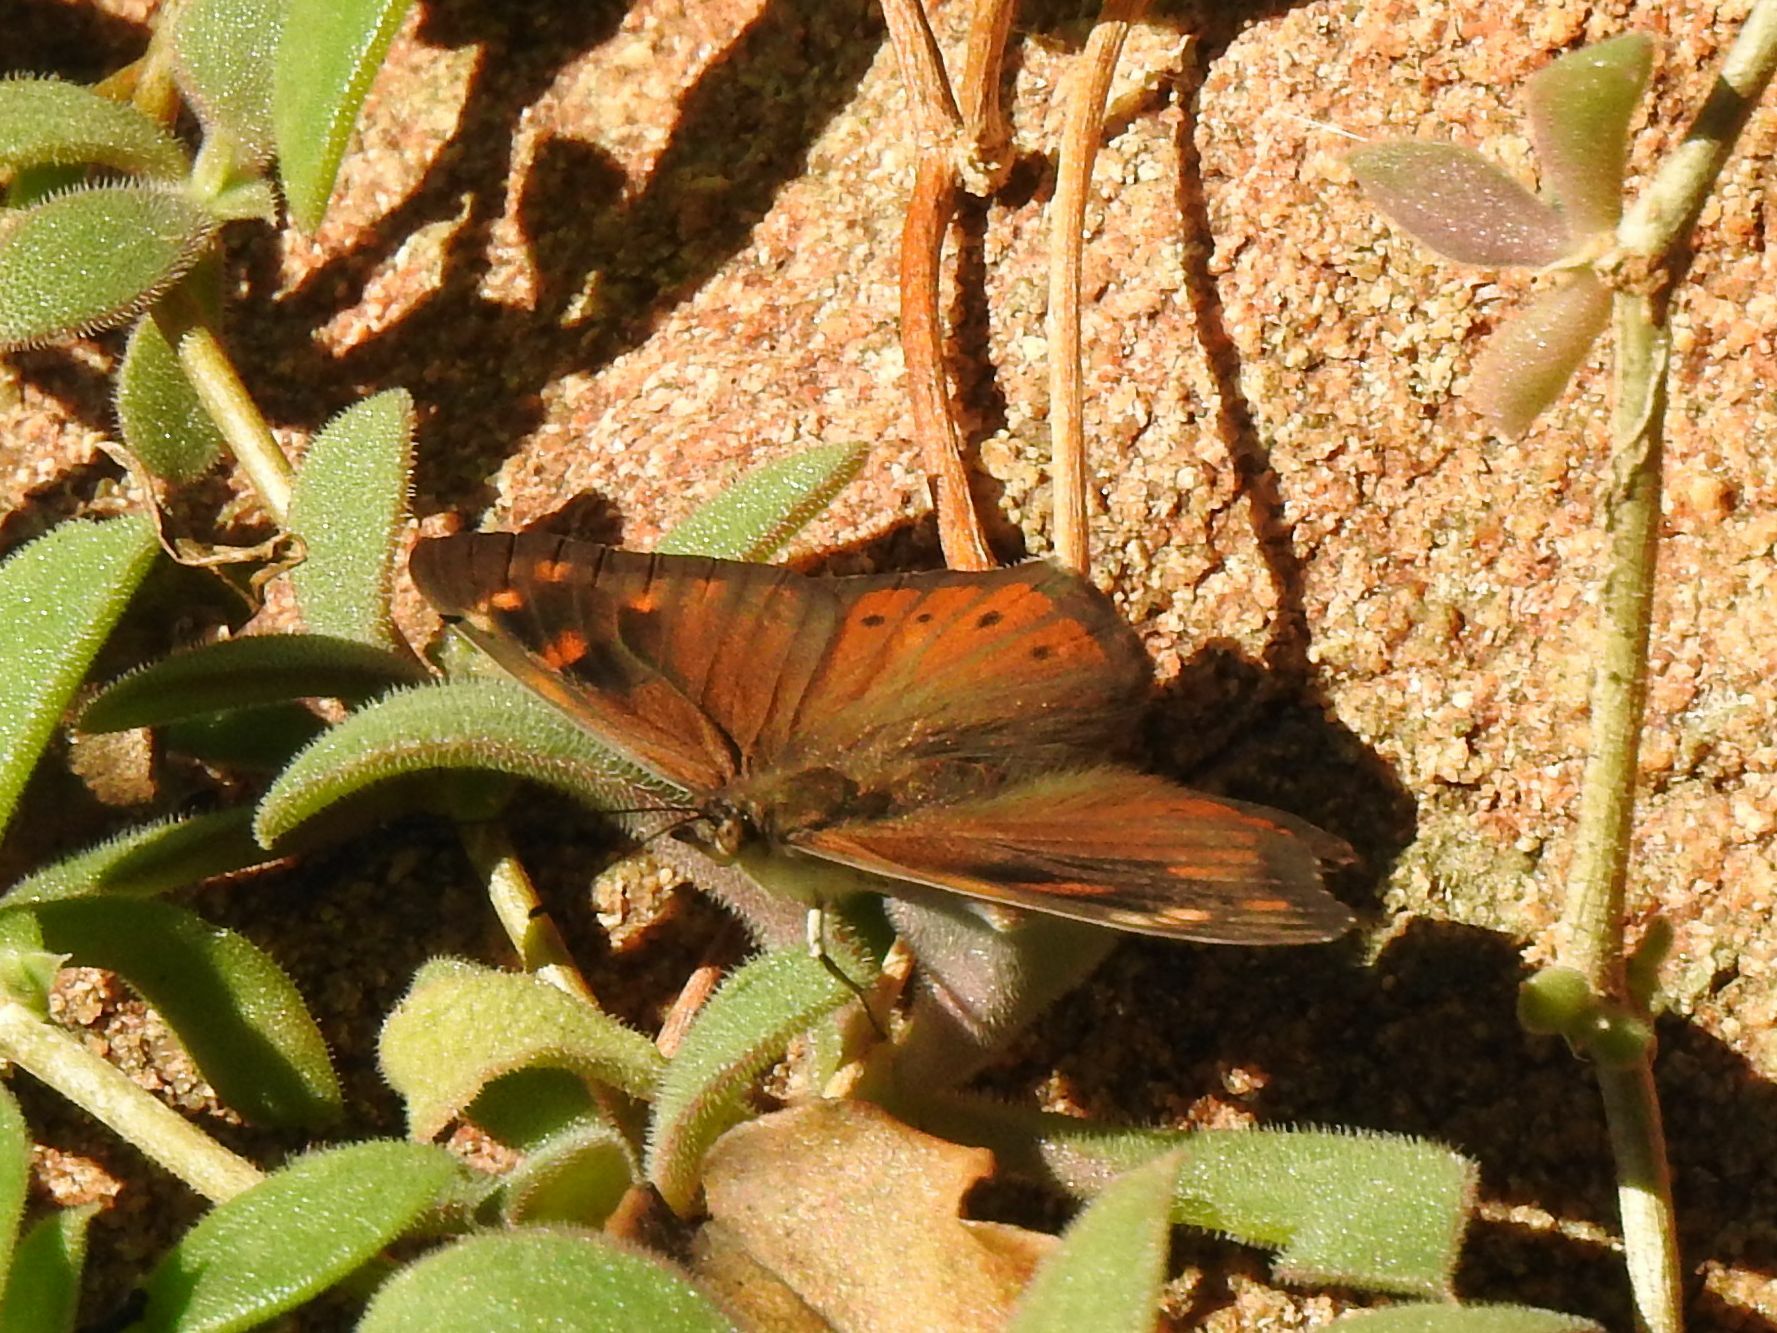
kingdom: Animalia
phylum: Arthropoda
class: Insecta
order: Lepidoptera
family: Nymphalidae
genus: Asterope
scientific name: Asterope boisduvali
